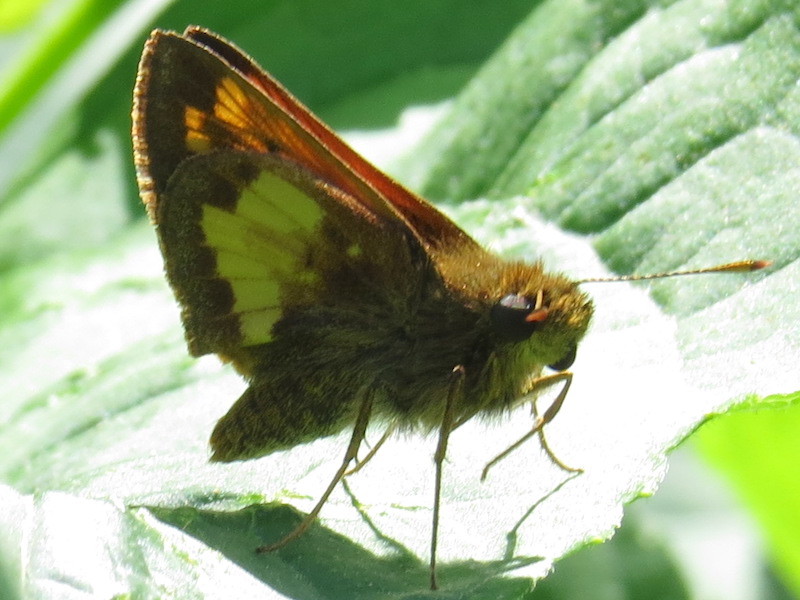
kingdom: Animalia
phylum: Arthropoda
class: Insecta
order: Lepidoptera
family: Hesperiidae
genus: Lon
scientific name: Lon hobomok
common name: Hobomok skipper
